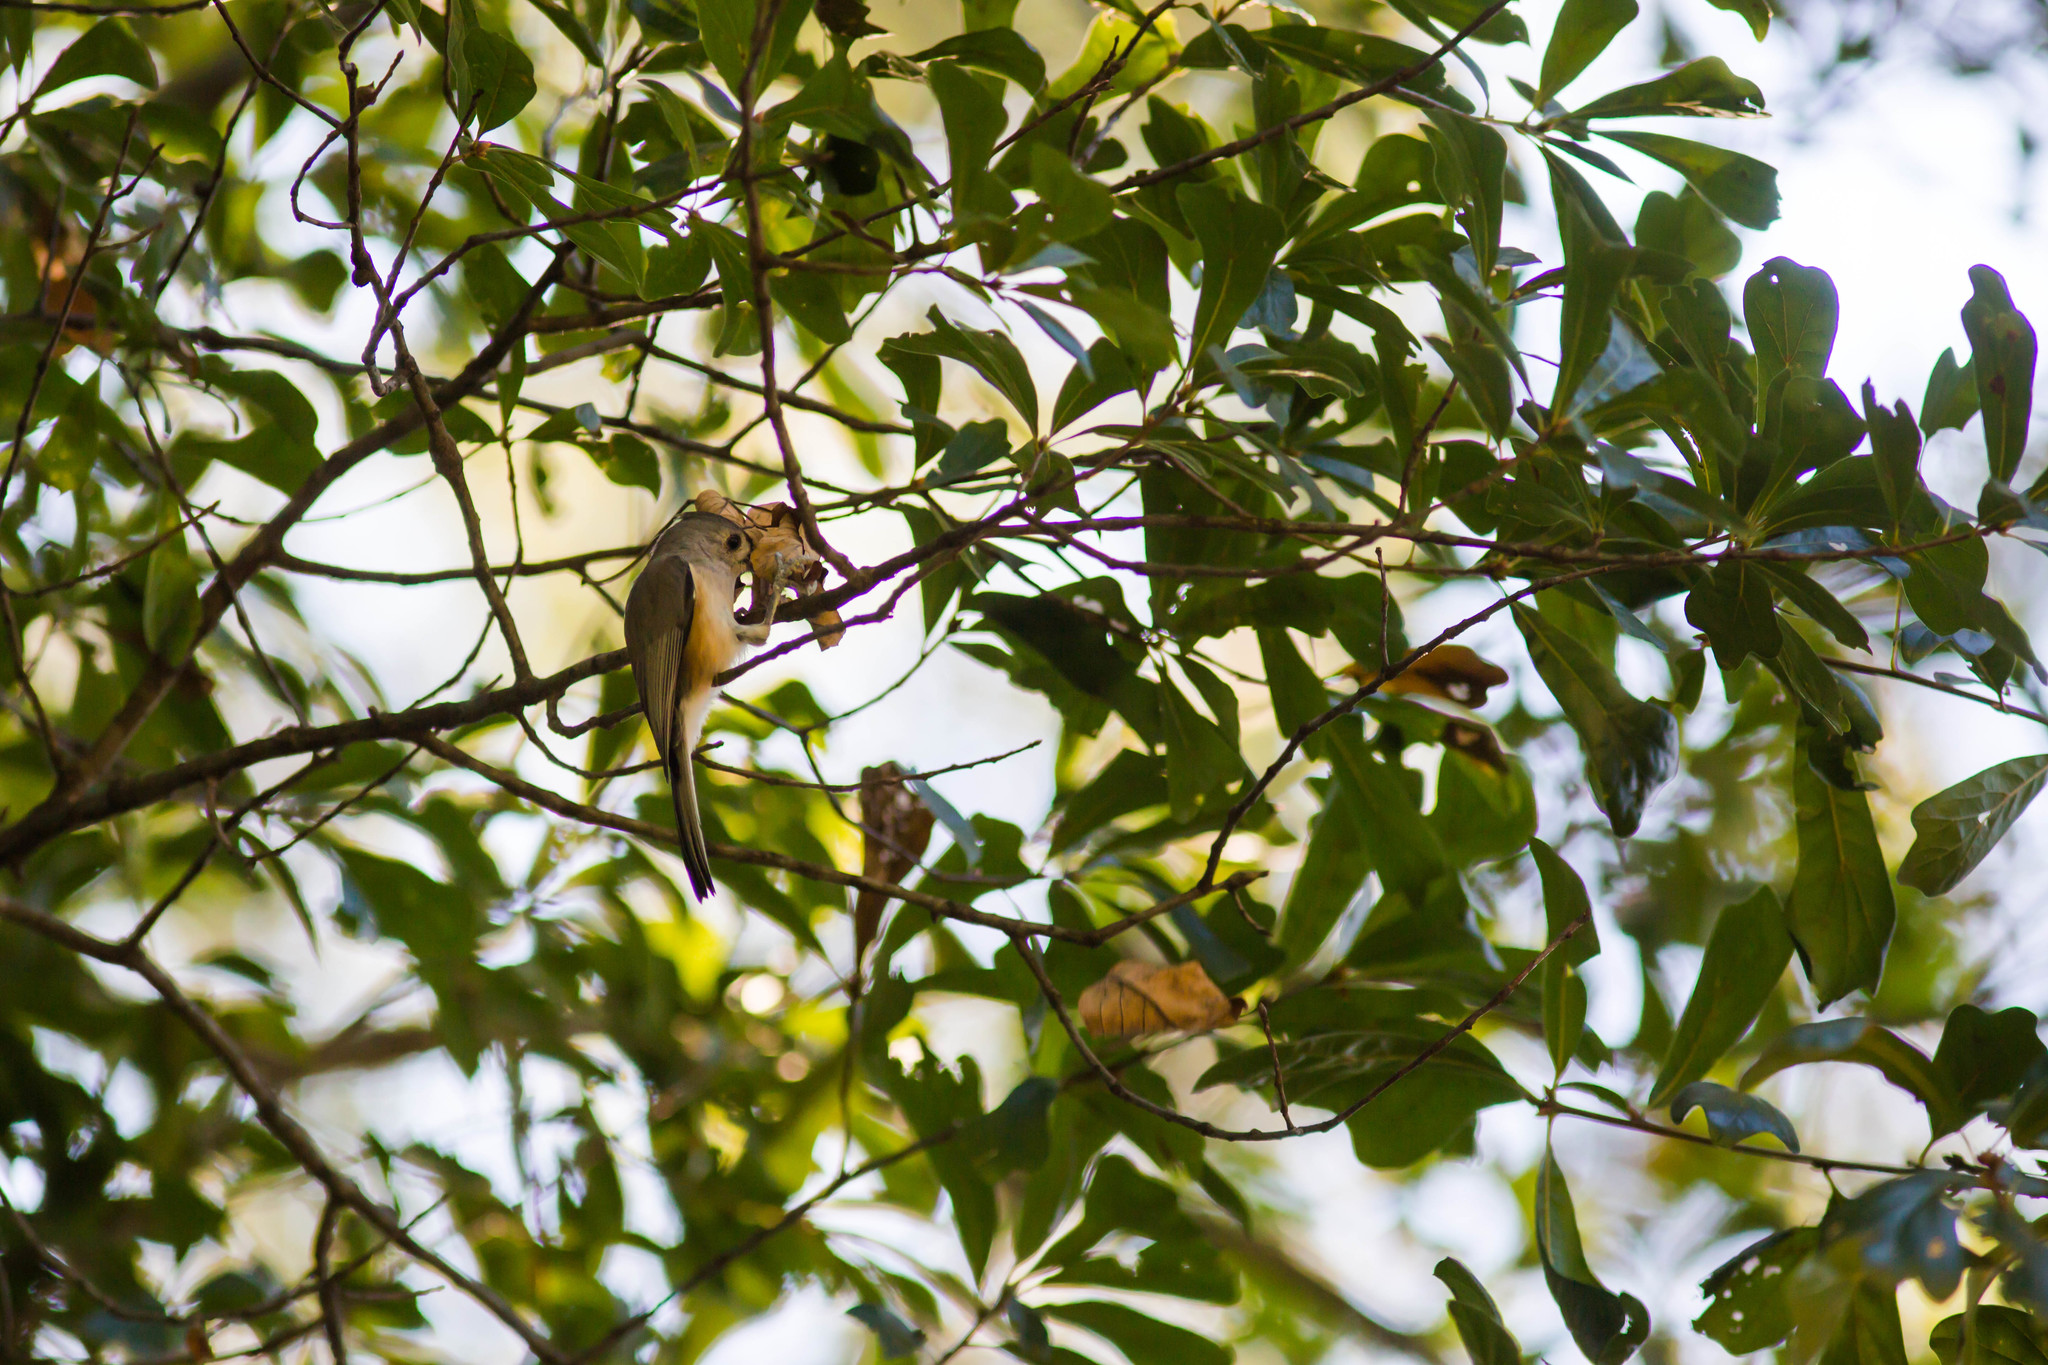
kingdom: Animalia
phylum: Chordata
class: Aves
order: Passeriformes
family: Paridae
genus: Baeolophus
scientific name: Baeolophus bicolor
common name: Tufted titmouse
